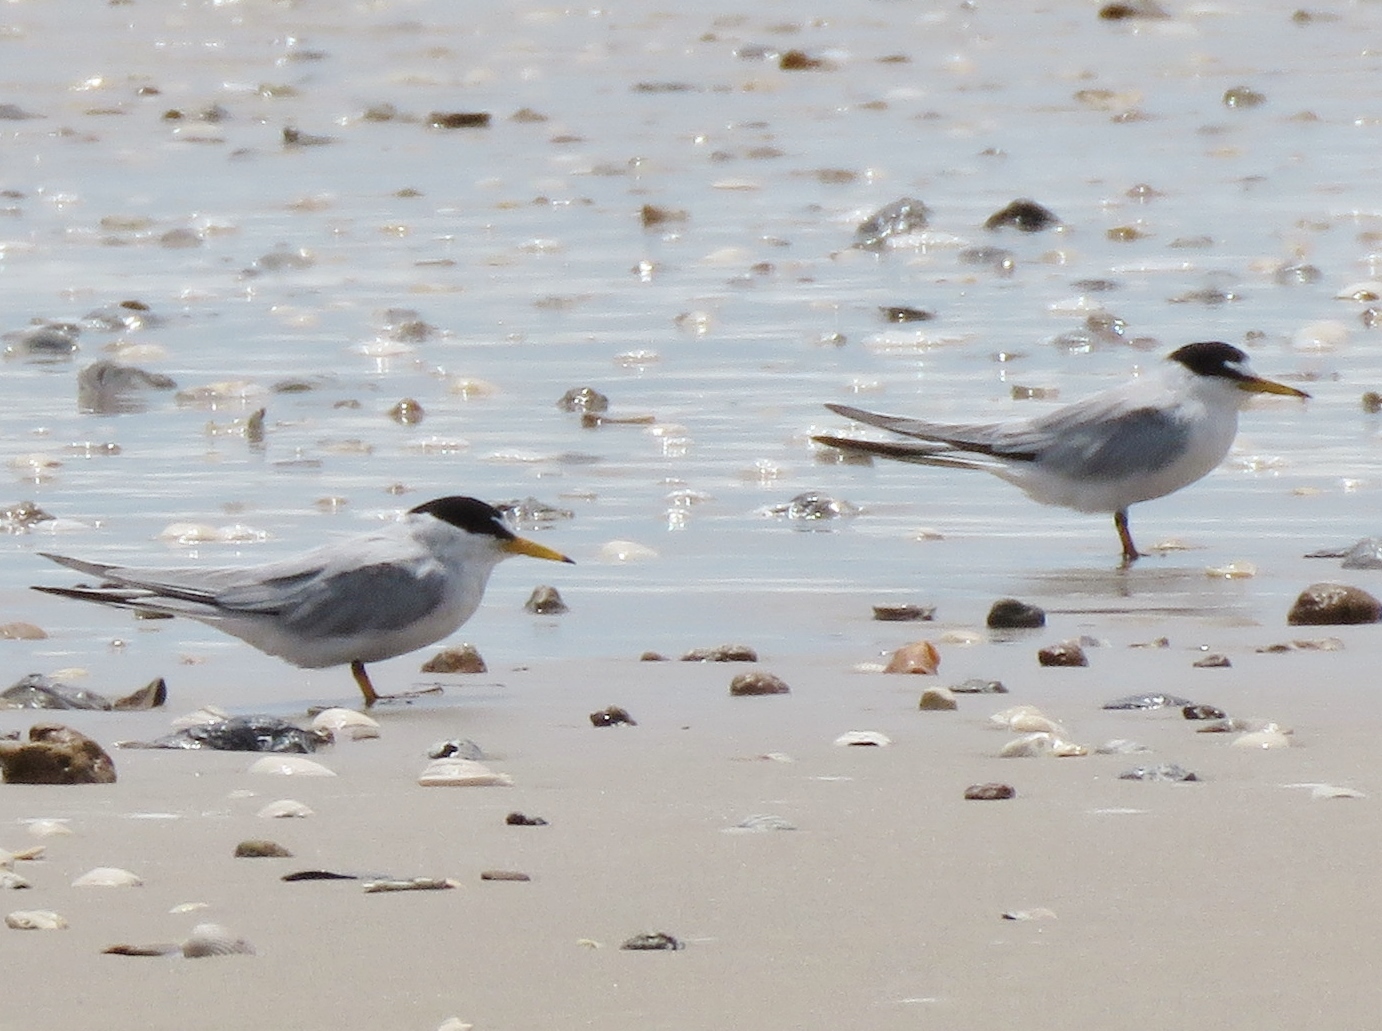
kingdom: Animalia
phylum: Chordata
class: Aves
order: Charadriiformes
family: Laridae
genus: Sternula
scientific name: Sternula antillarum
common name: Least tern
